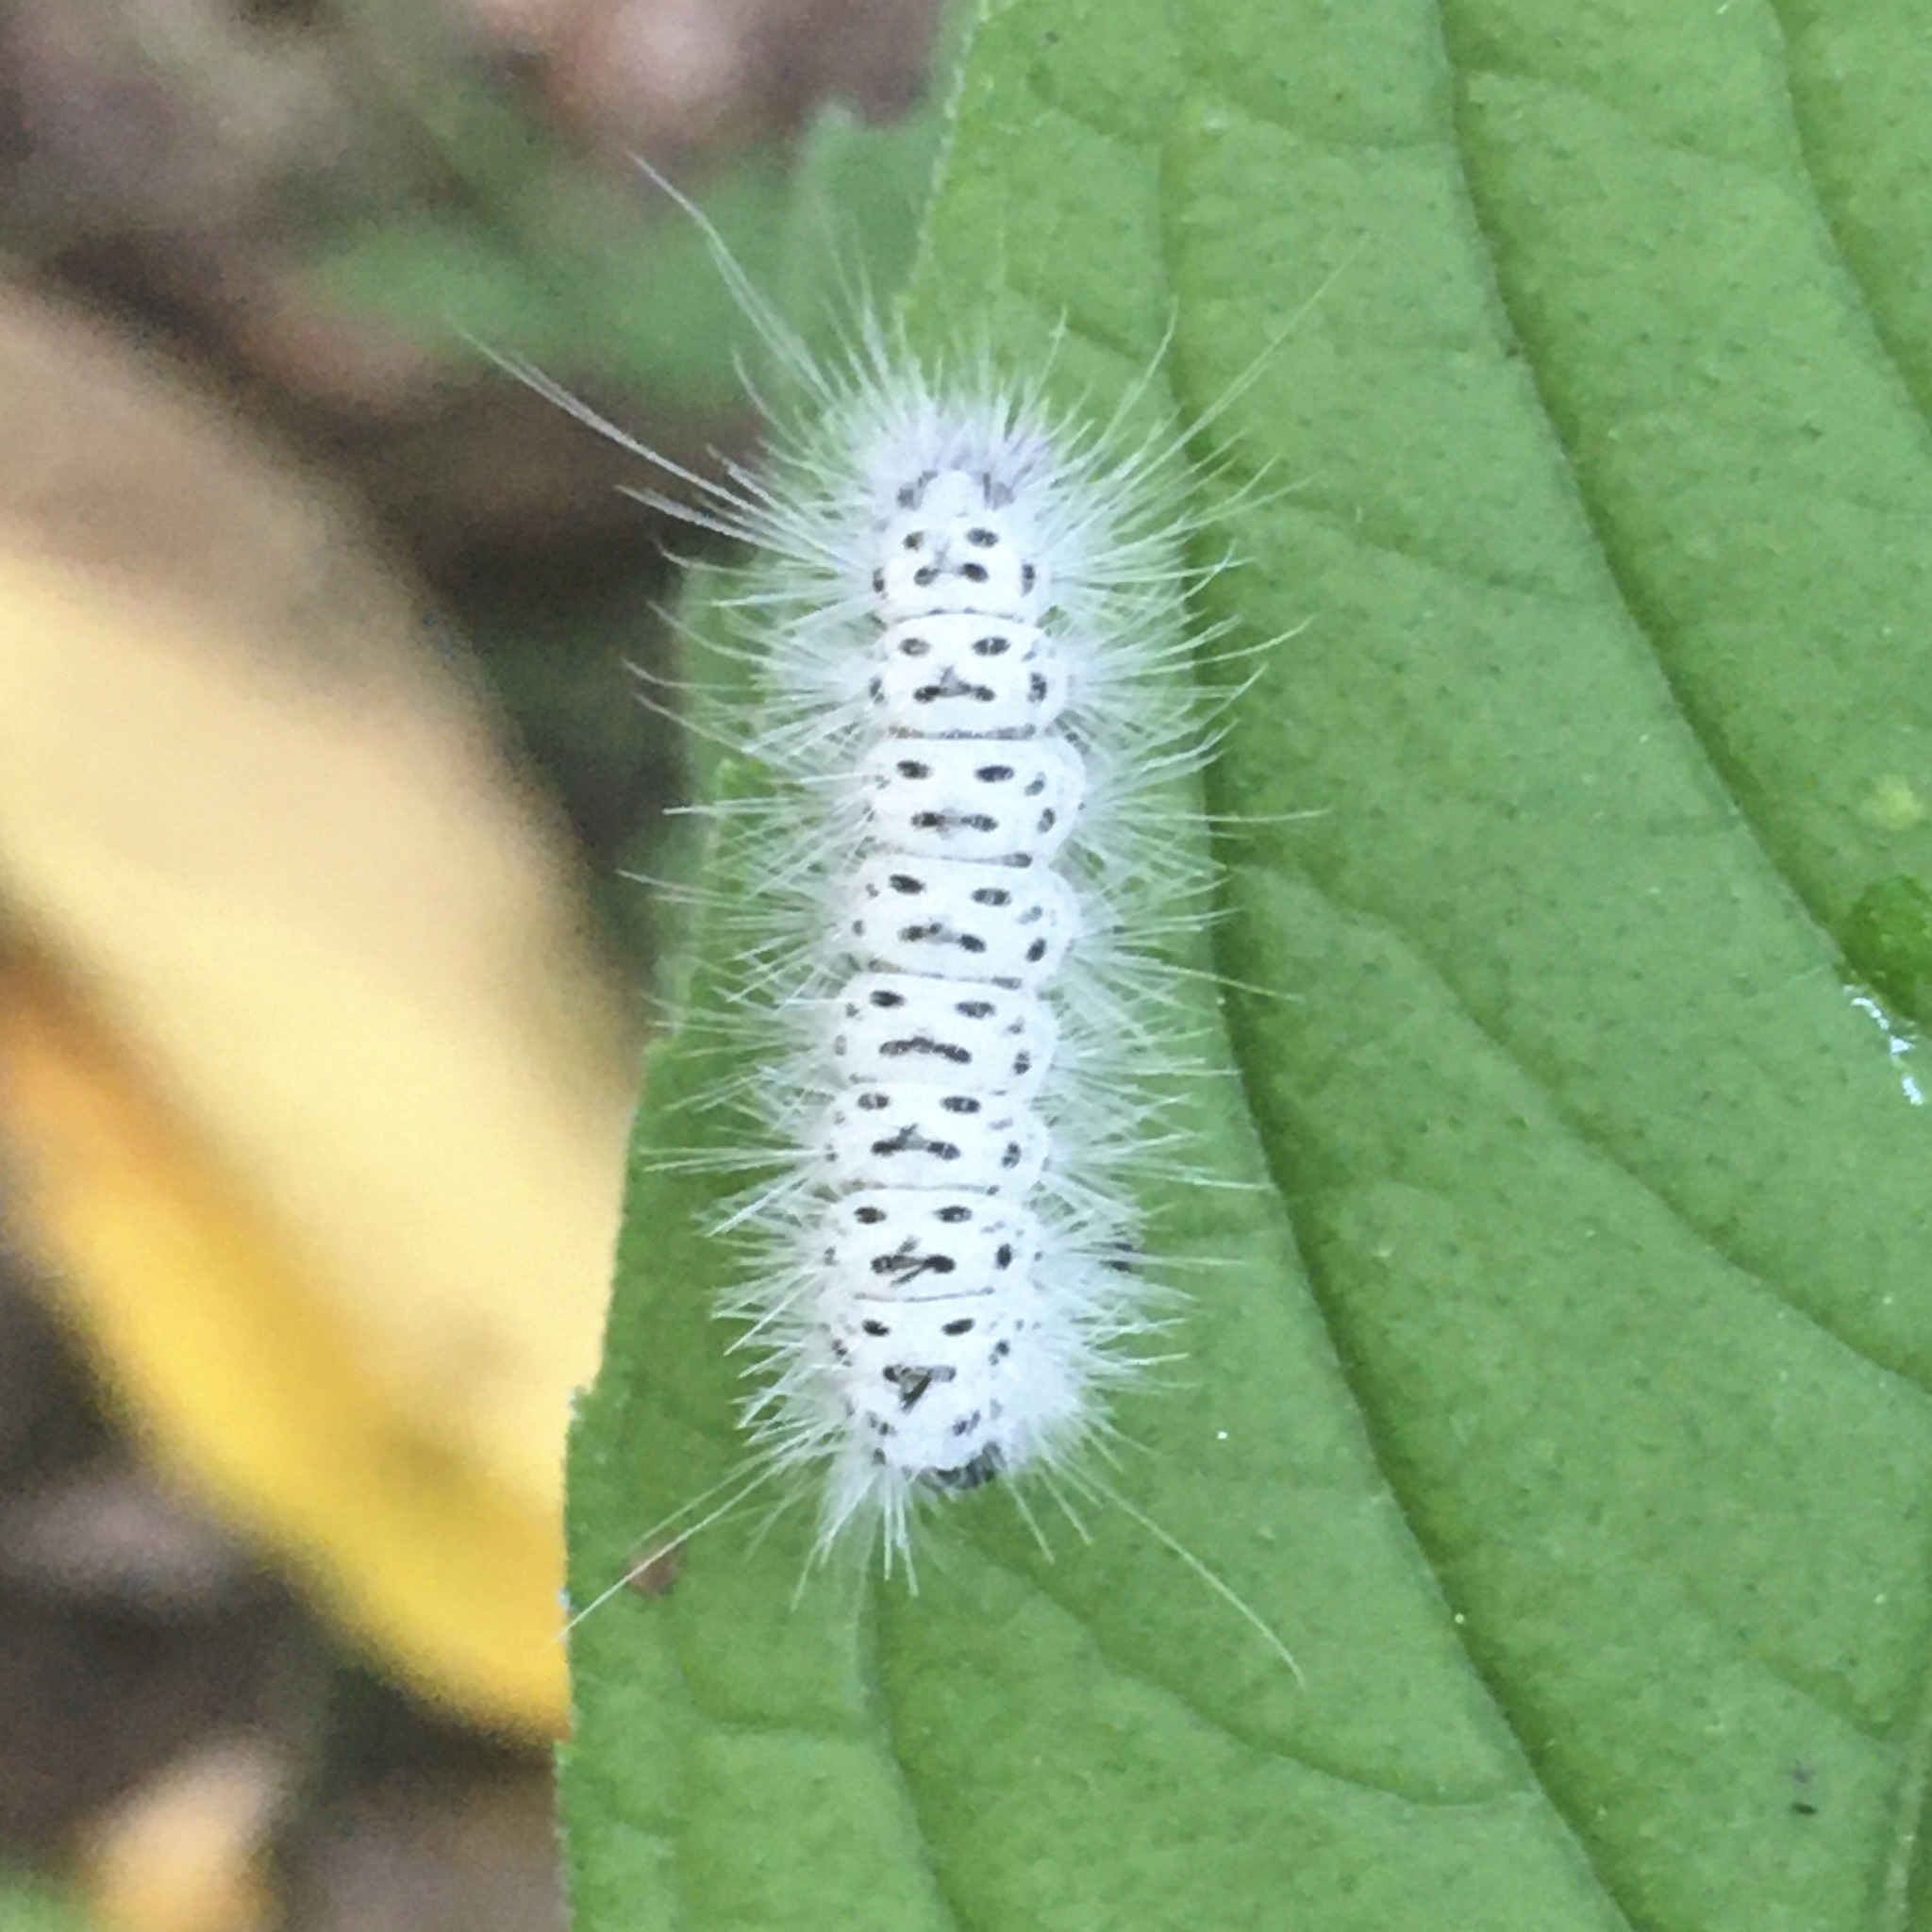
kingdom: Animalia
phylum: Arthropoda
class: Insecta
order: Lepidoptera
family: Erebidae
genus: Lophocampa
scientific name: Lophocampa caryae
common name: Hickory tussock moth
